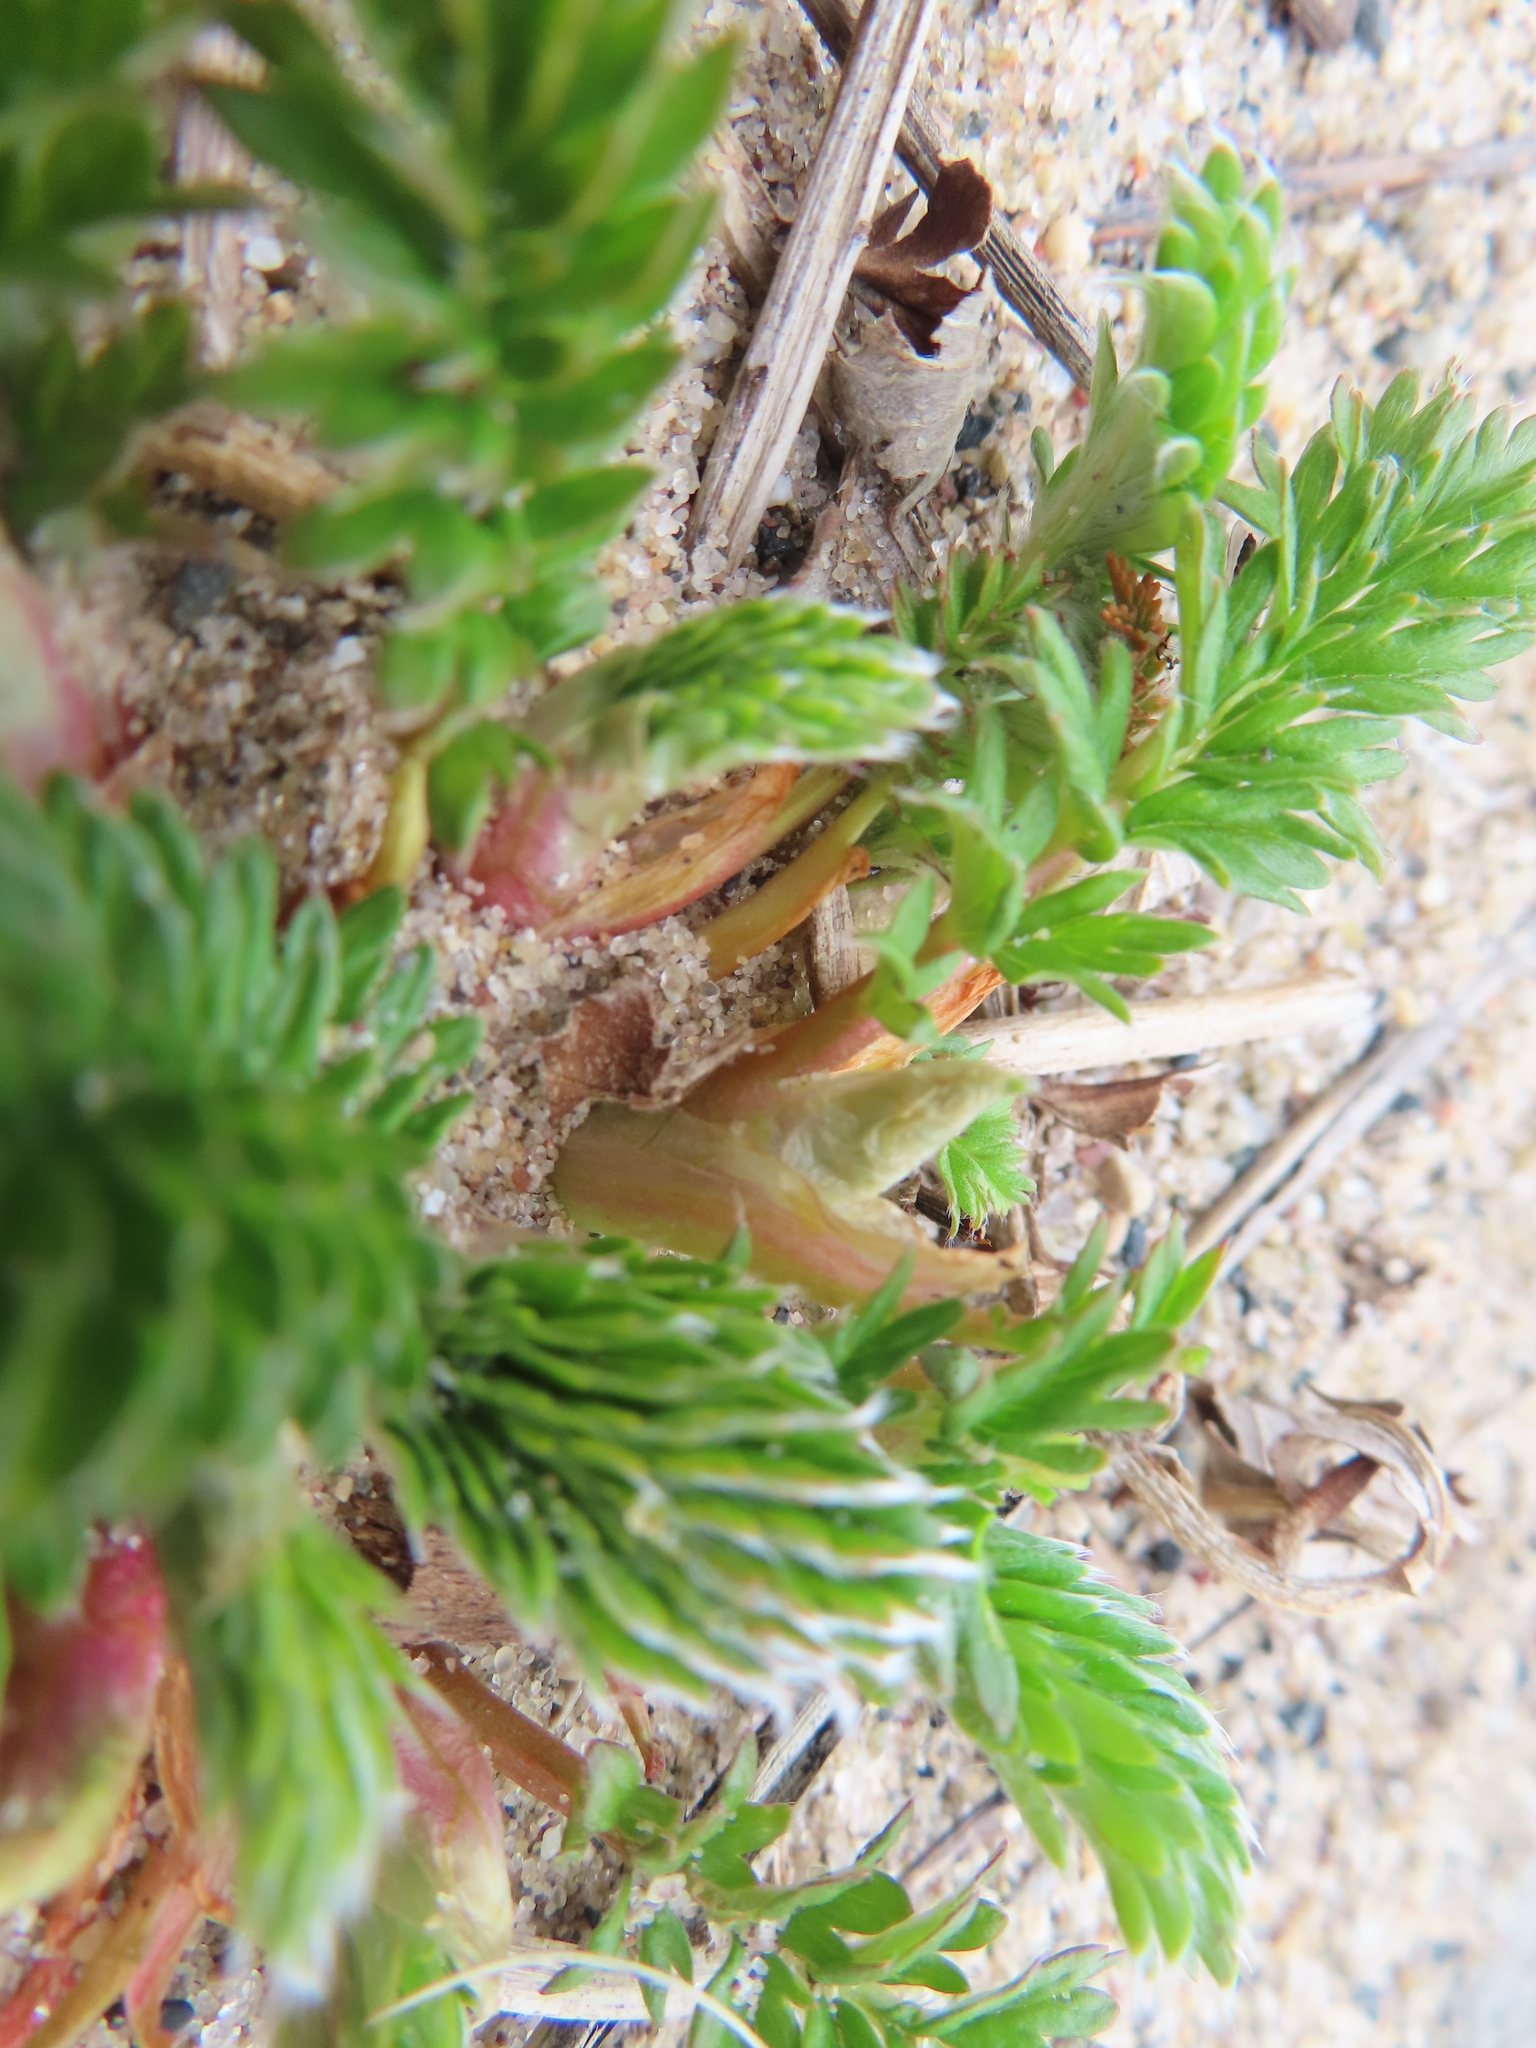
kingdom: Plantae
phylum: Tracheophyta
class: Magnoliopsida
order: Rosales
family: Rosaceae
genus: Argentina
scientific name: Argentina anserina
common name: Common silverweed
